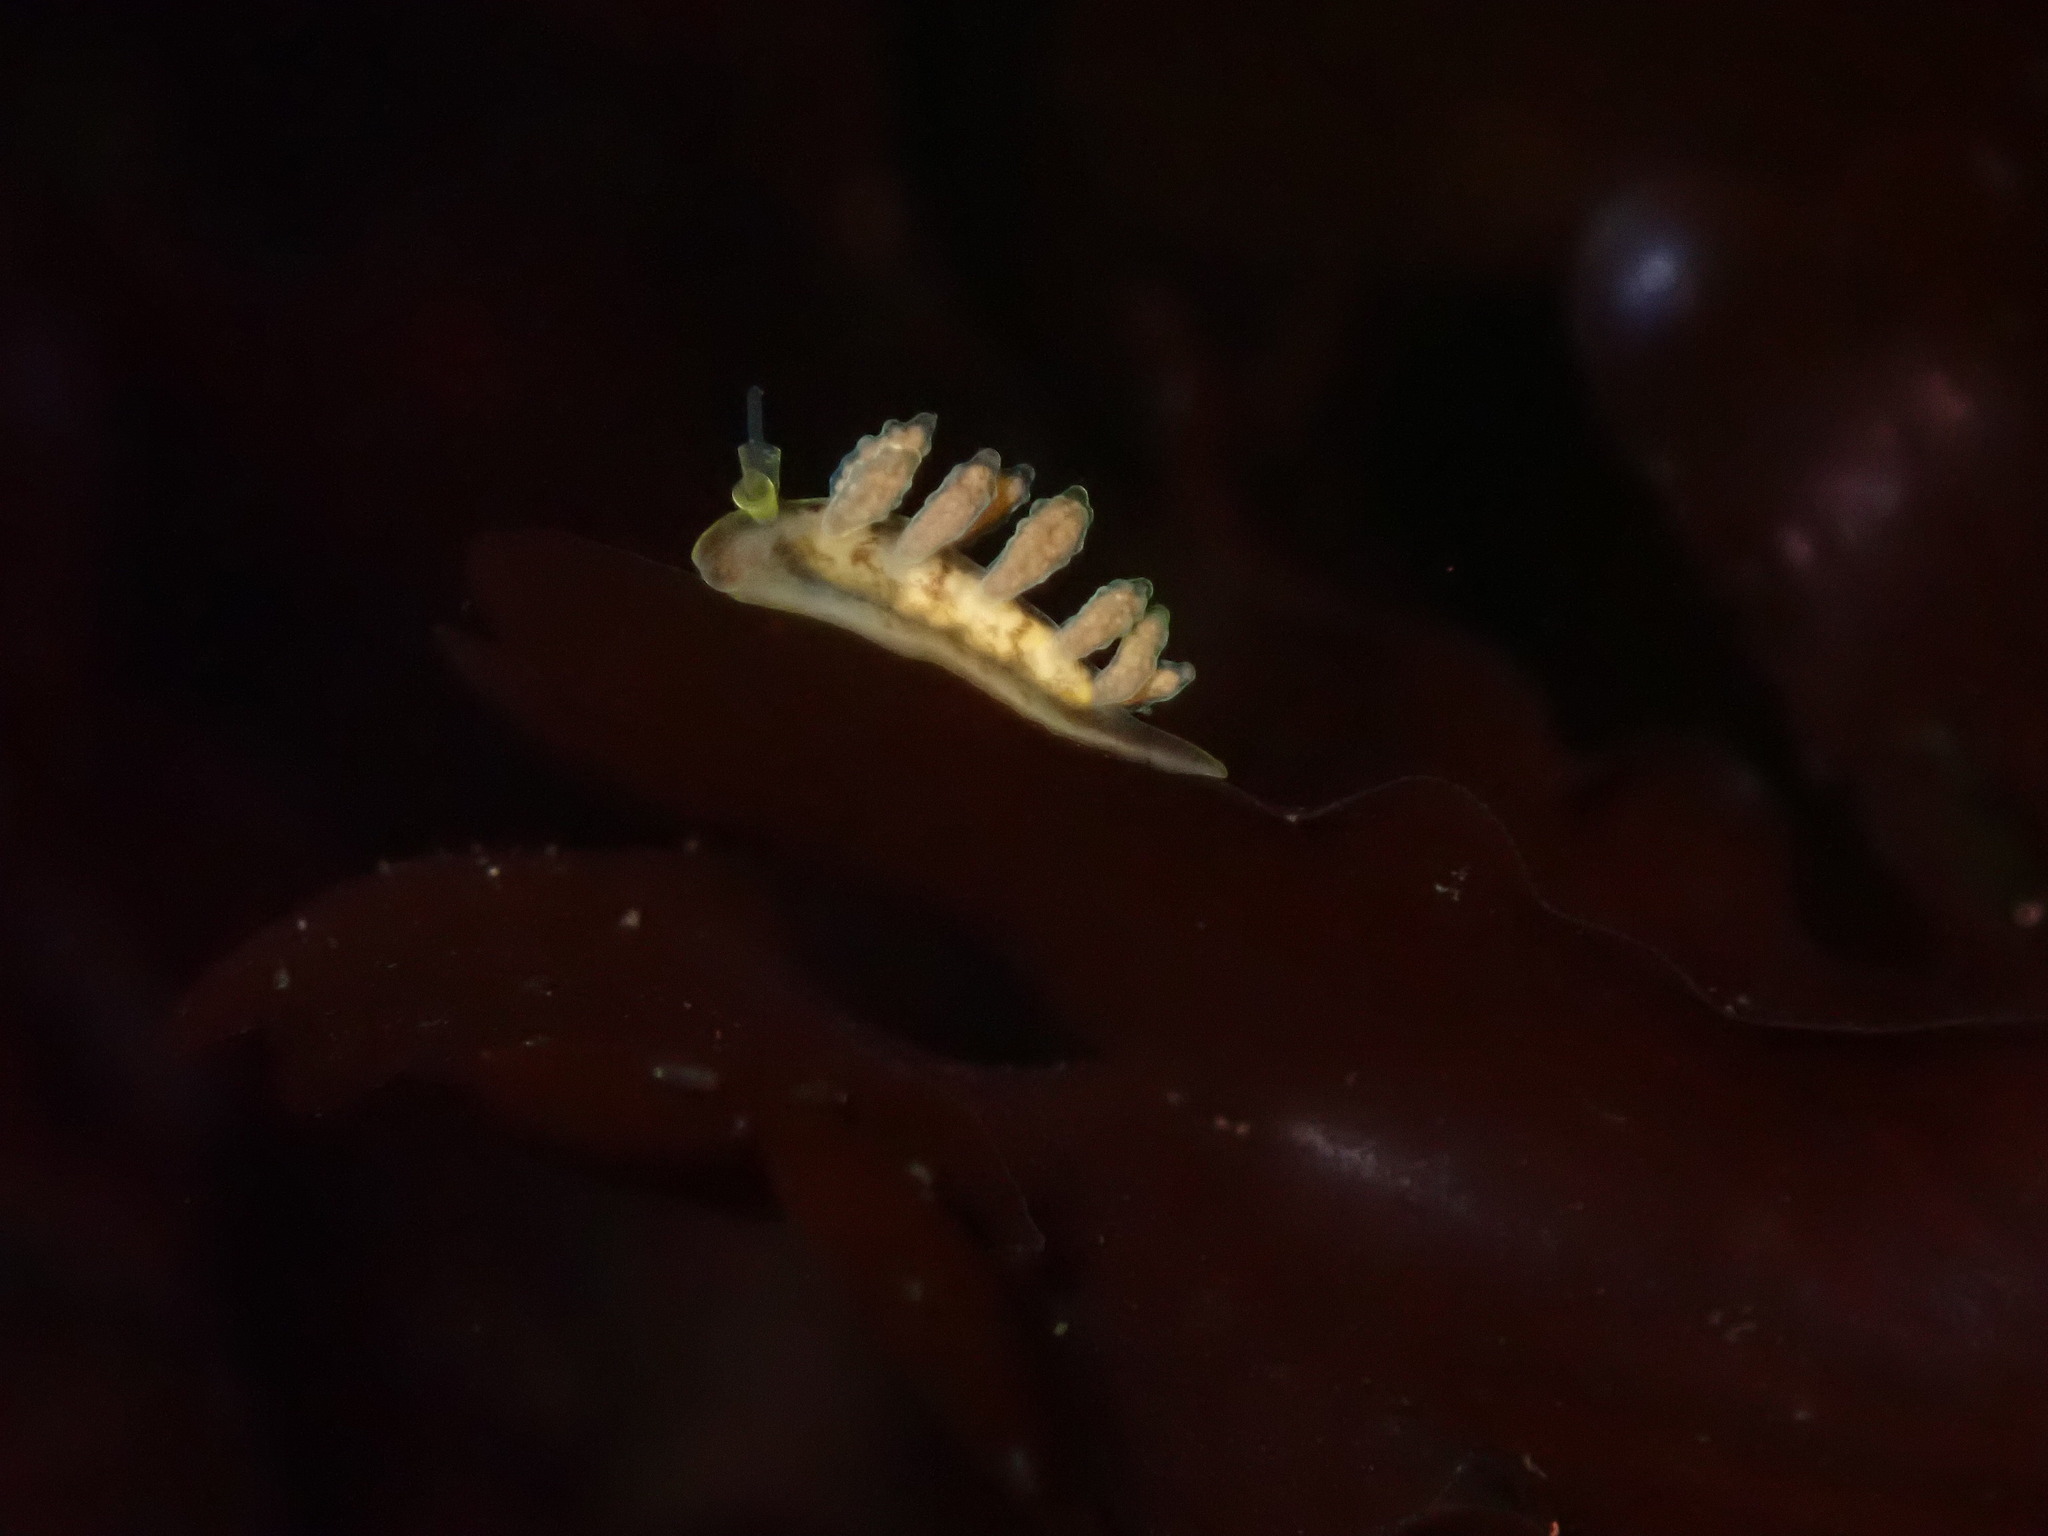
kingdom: Animalia
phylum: Mollusca
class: Gastropoda
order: Nudibranchia
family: Dotidae
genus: Doto
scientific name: Doto columbiana
